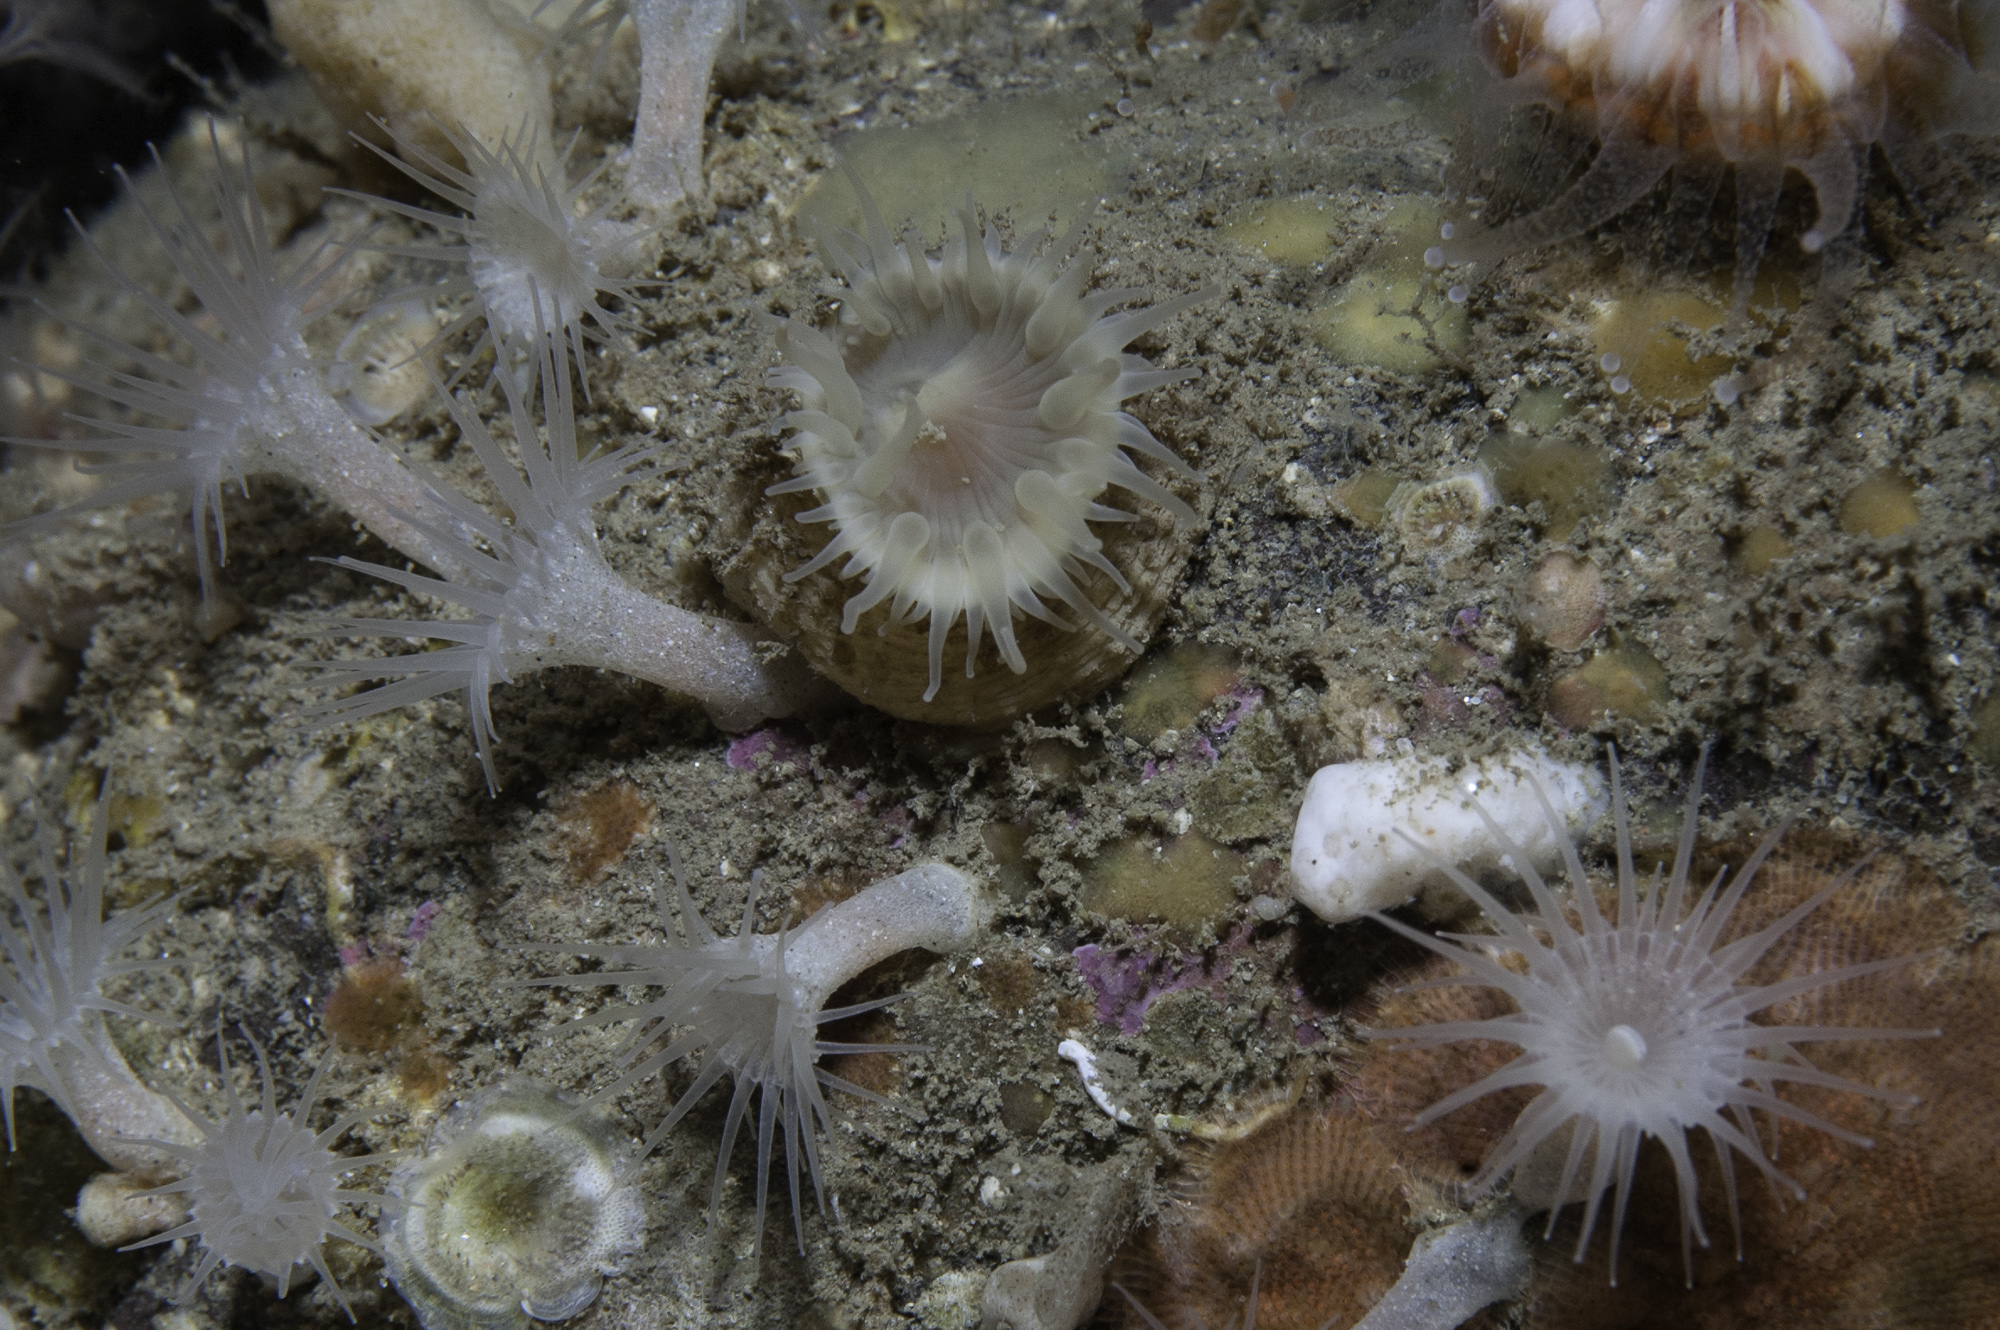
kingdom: Animalia
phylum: Cnidaria
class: Anthozoa
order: Zoantharia
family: Parazoanthidae
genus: Parazoanthus
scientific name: Parazoanthus anguicomus
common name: White cluster anemone
